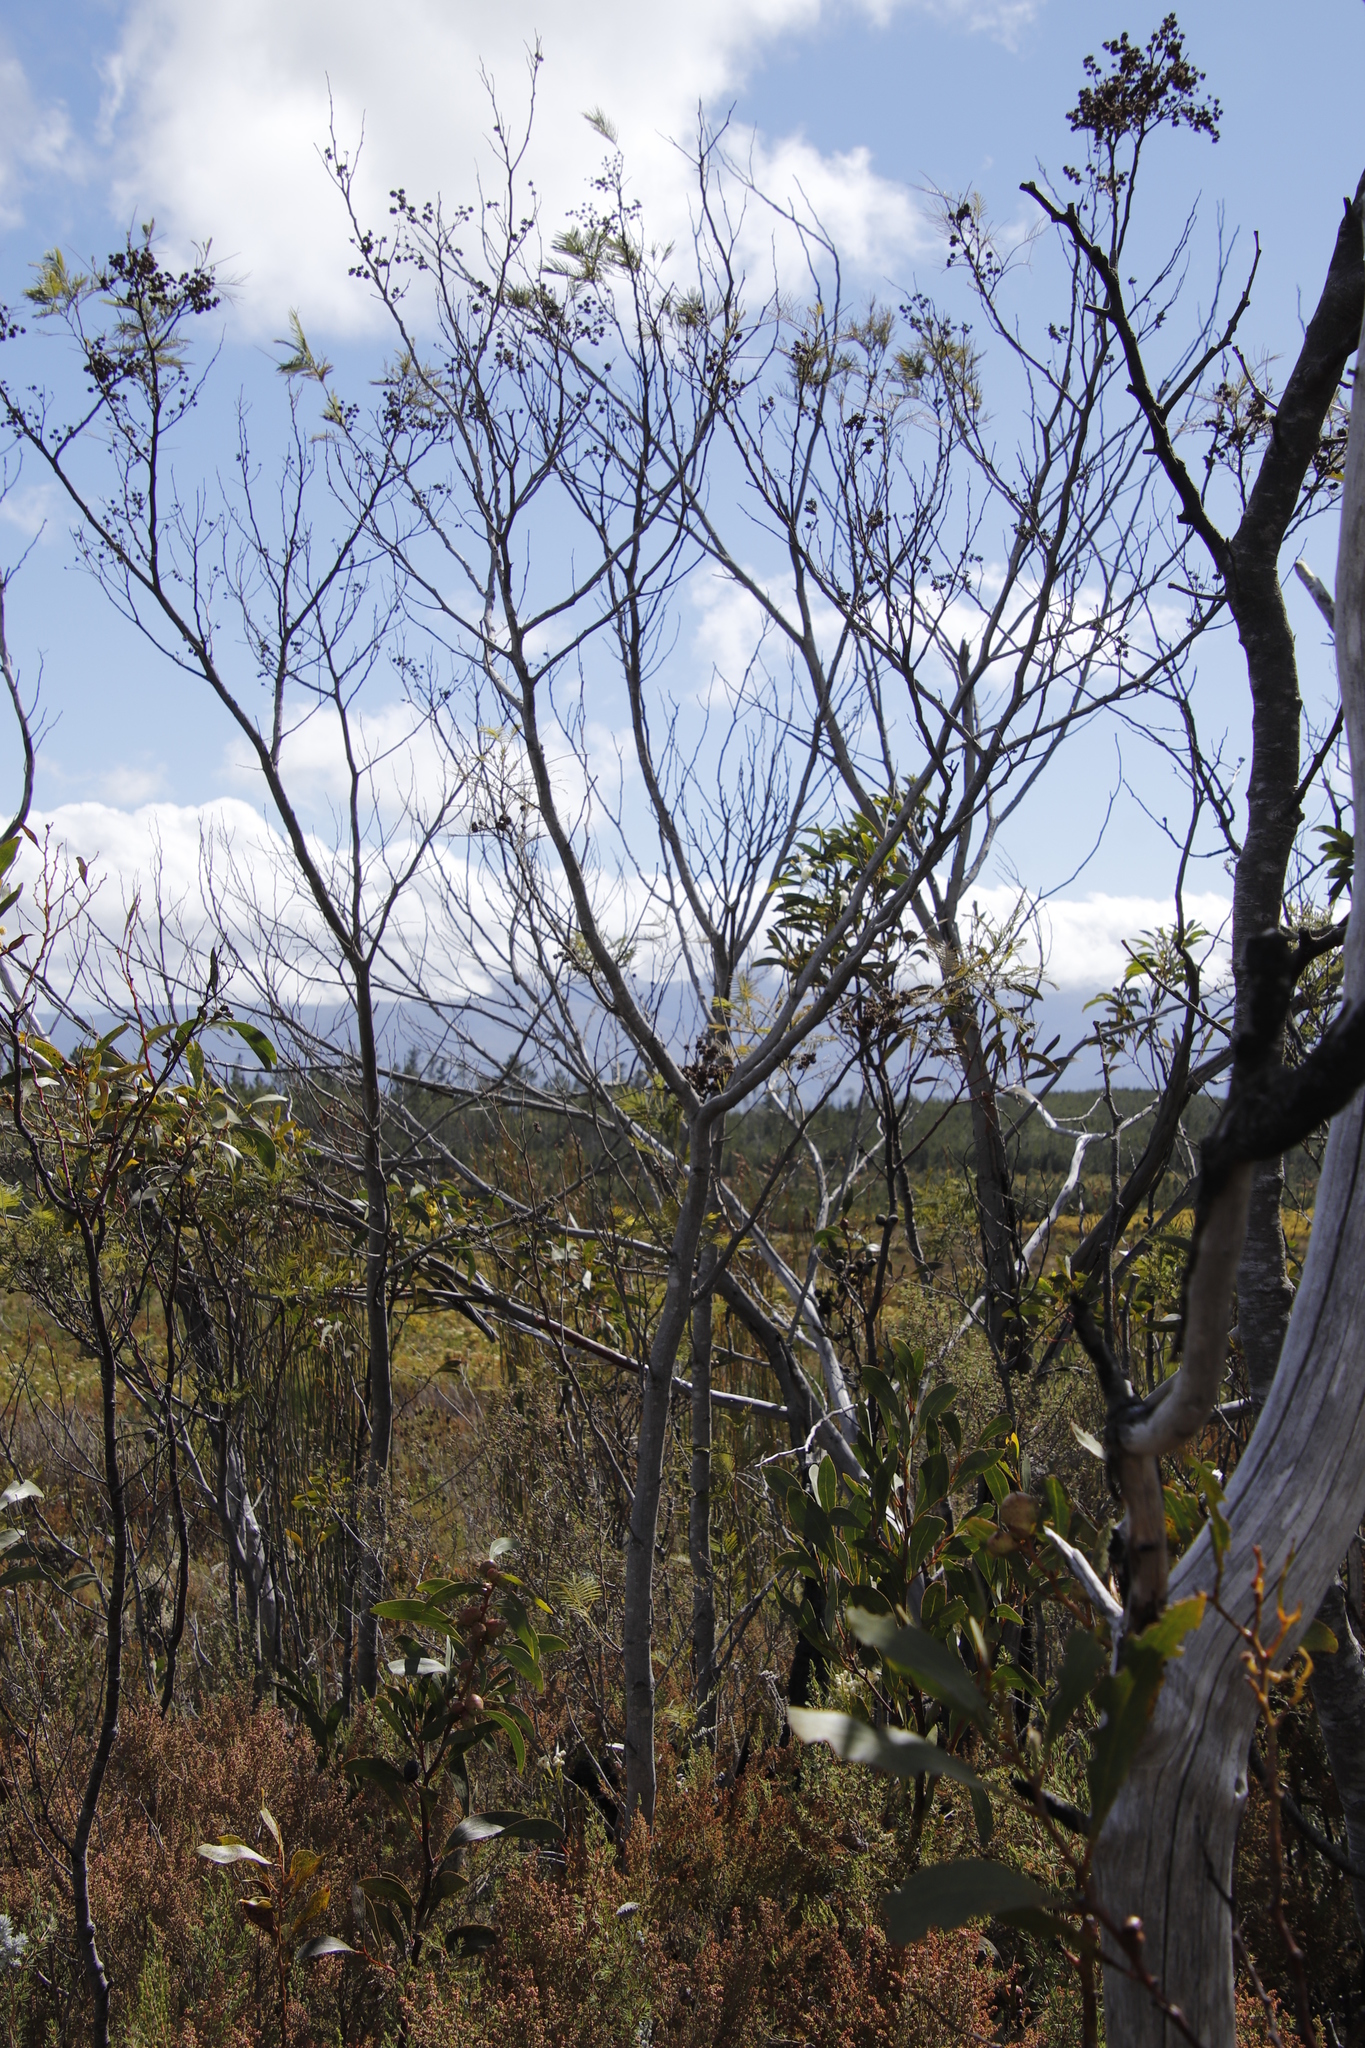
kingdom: Plantae
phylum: Tracheophyta
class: Magnoliopsida
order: Fabales
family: Fabaceae
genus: Acacia
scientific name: Acacia mearnsii
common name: Black wattle
